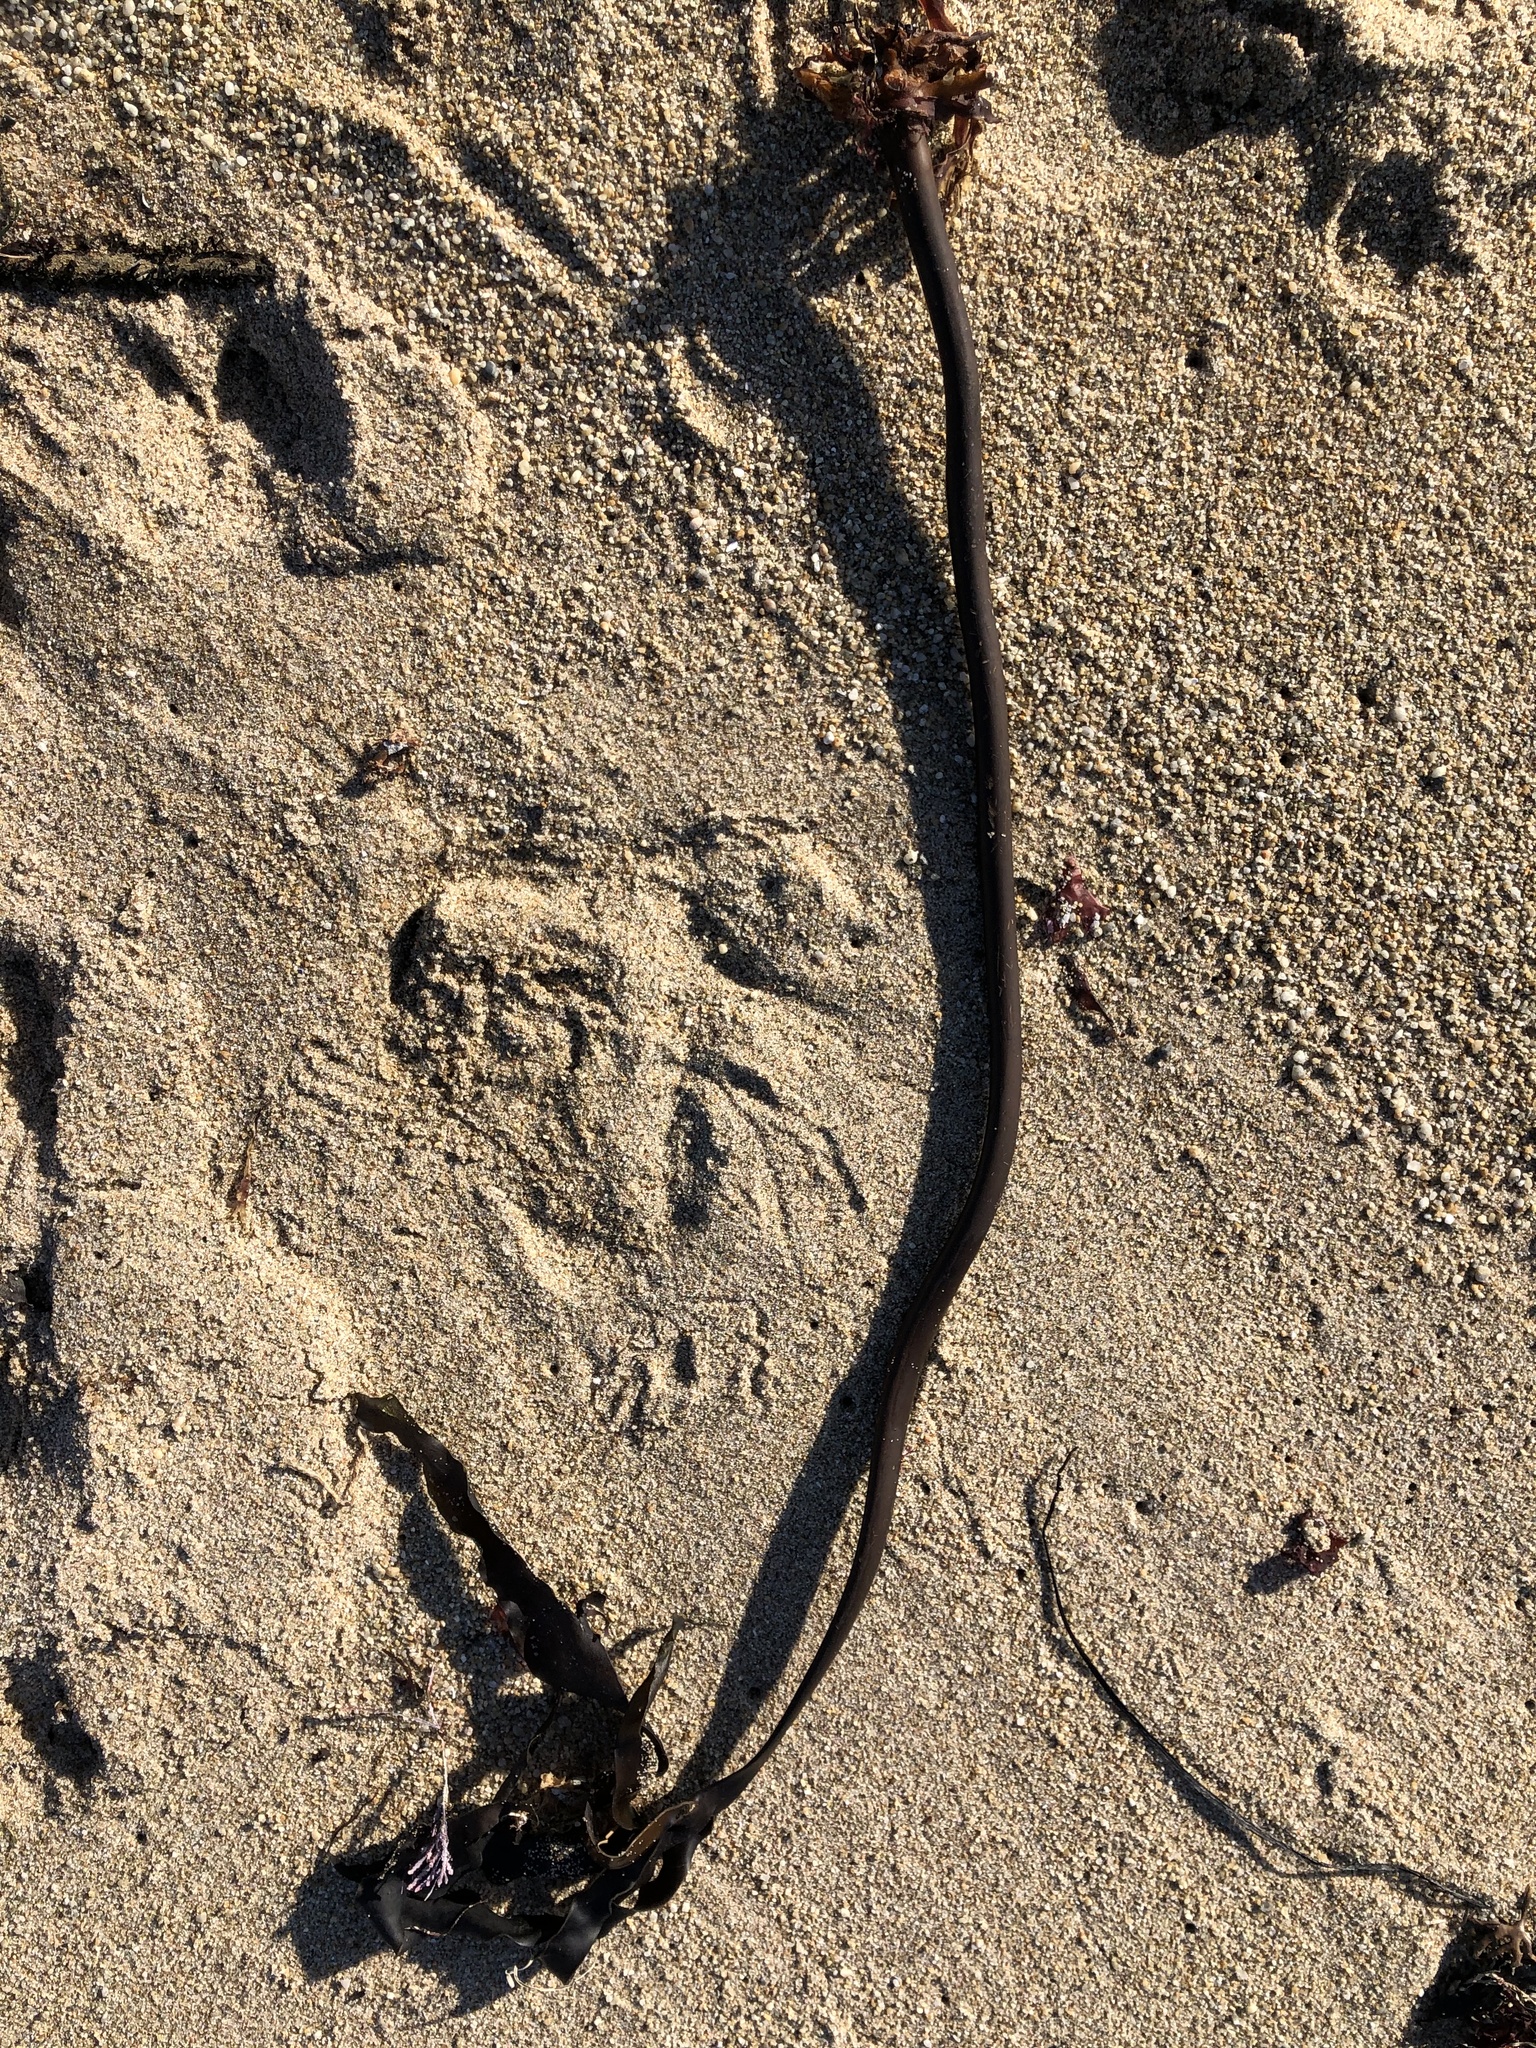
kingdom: Chromista
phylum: Ochrophyta
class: Phaeophyceae
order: Laminariales
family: Laminariaceae
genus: Laminaria
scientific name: Laminaria setchellii
